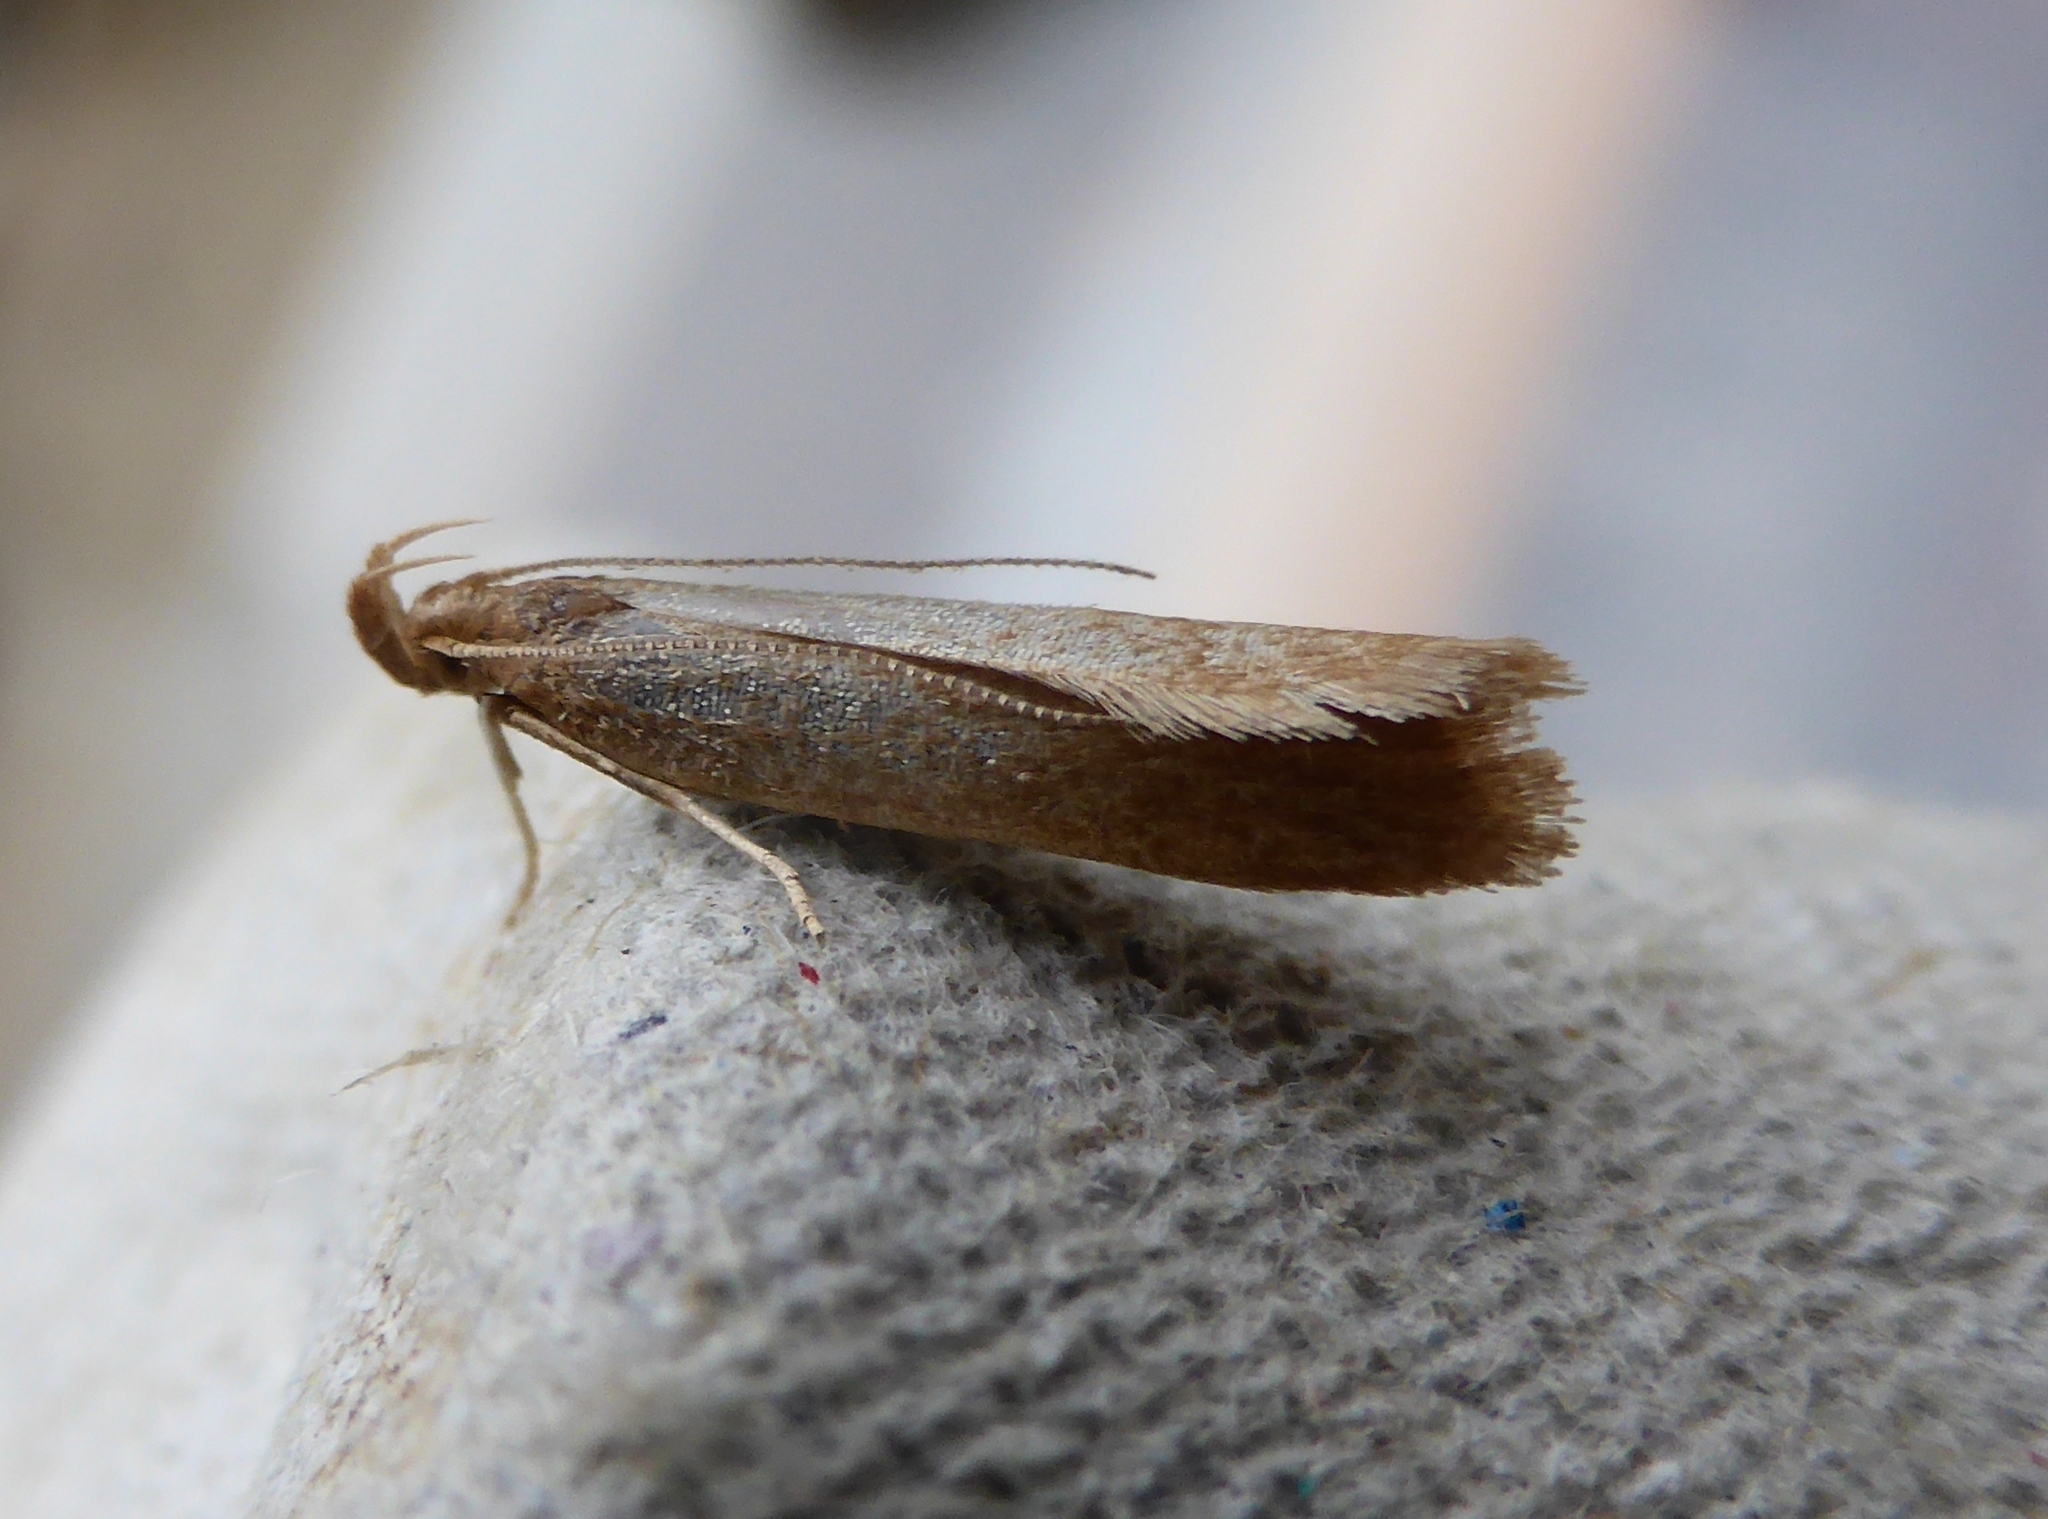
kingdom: Animalia
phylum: Arthropoda
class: Insecta
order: Lepidoptera
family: Oecophoridae
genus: Borkhausenia
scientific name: Borkhausenia Crassa unitella
